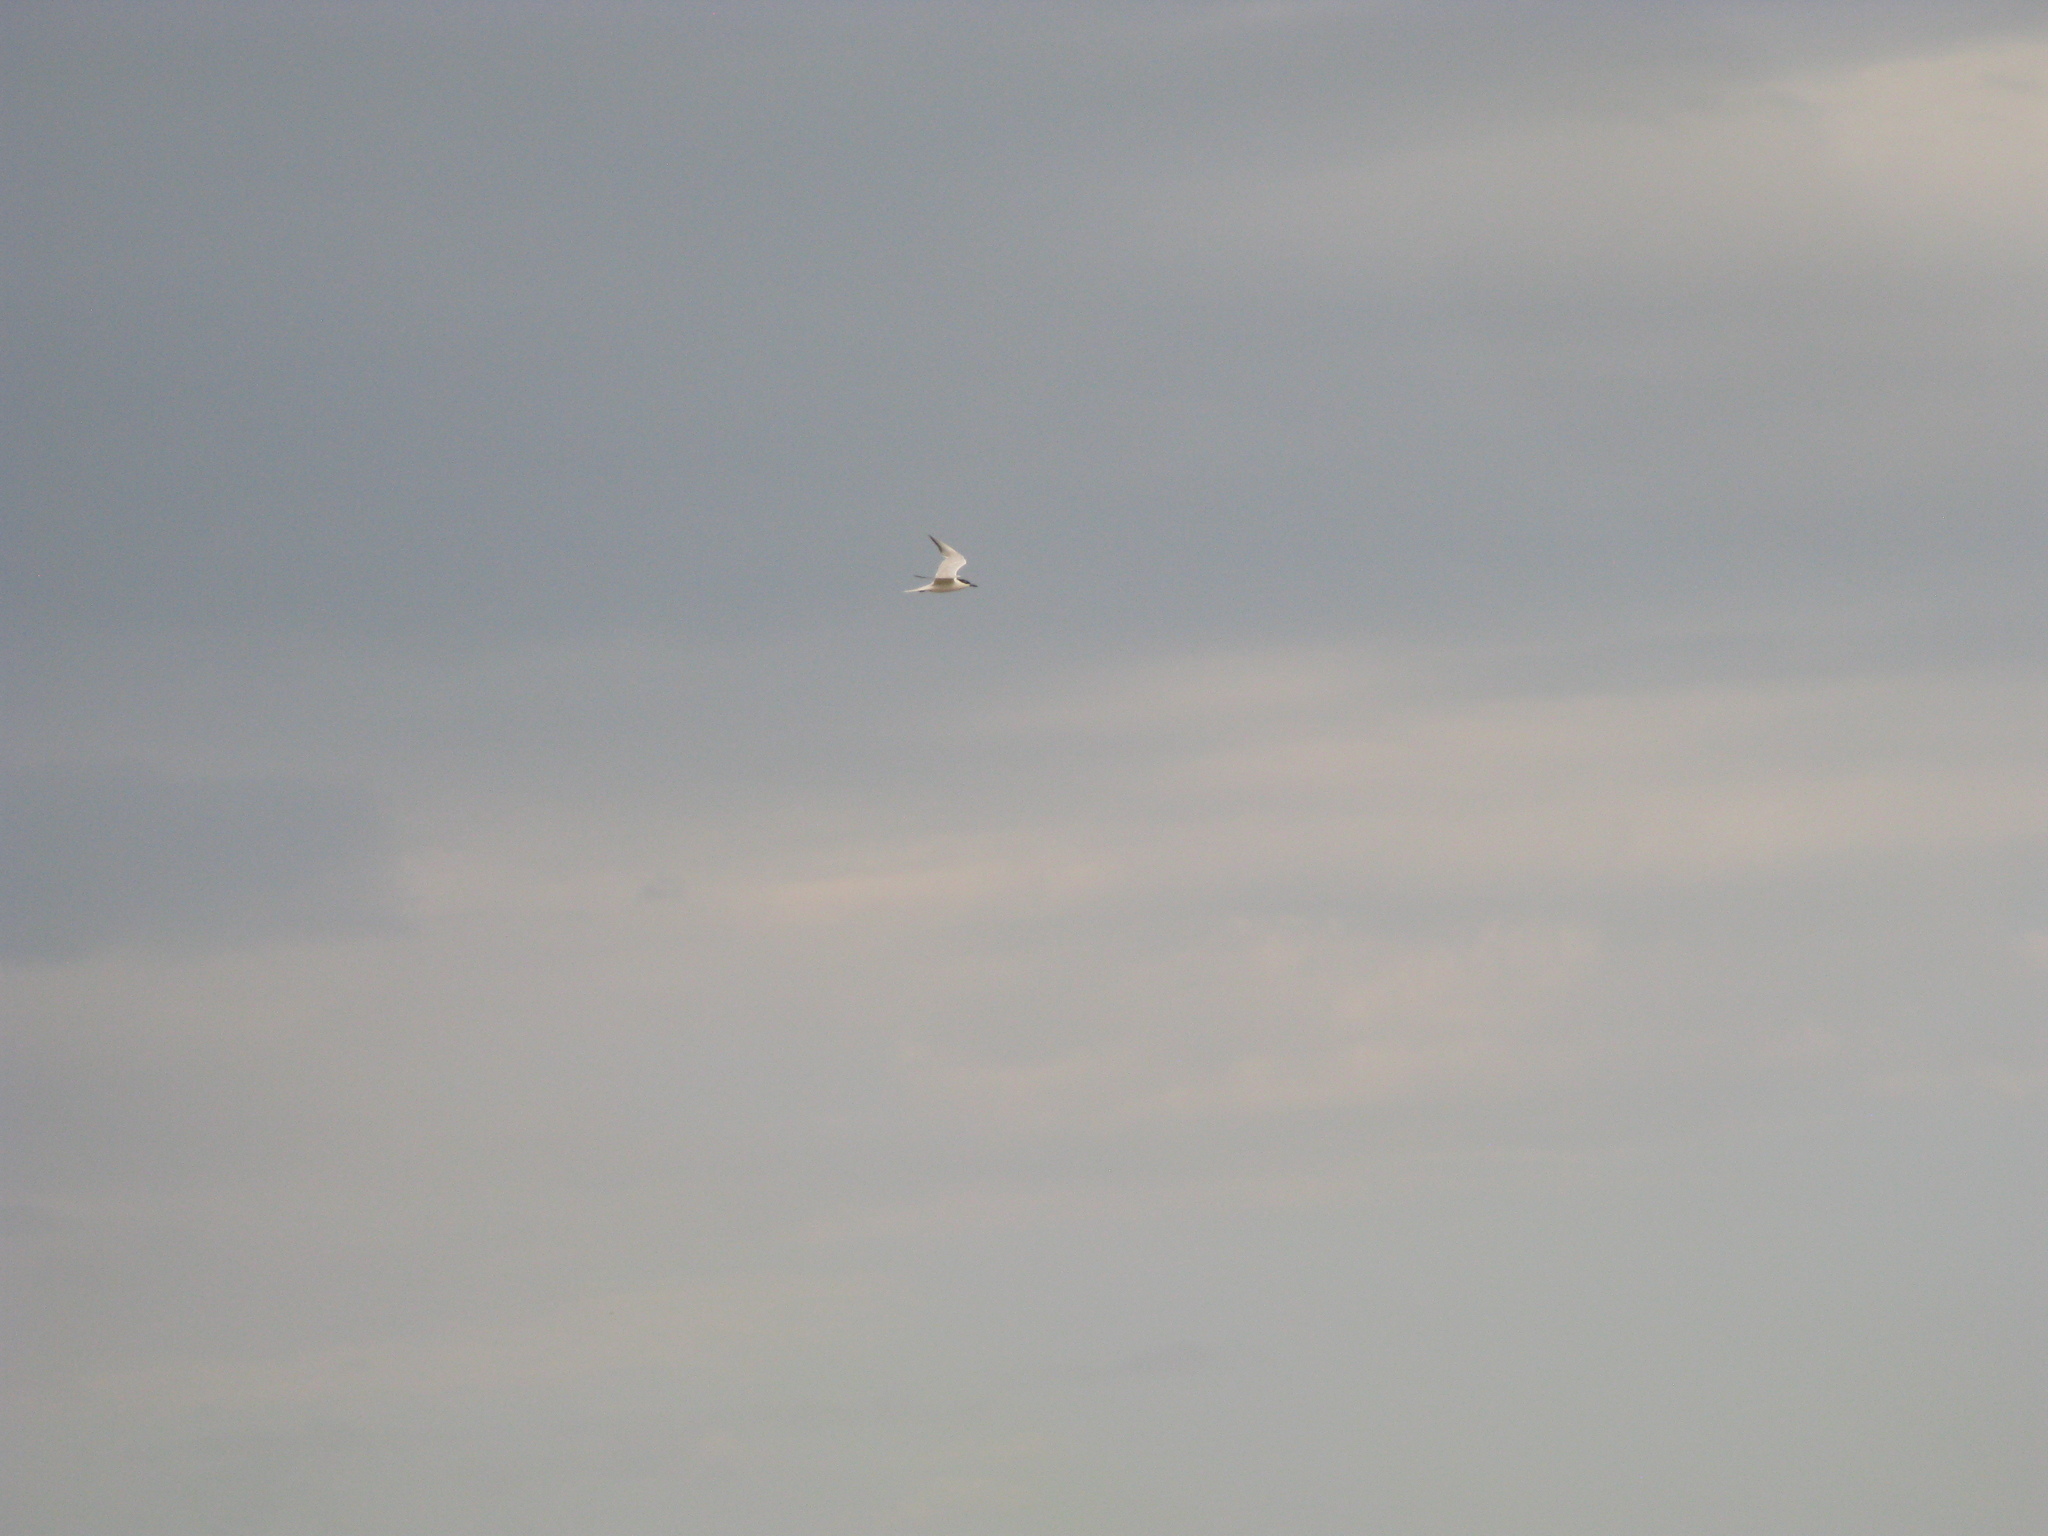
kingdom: Animalia
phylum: Chordata
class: Aves
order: Charadriiformes
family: Laridae
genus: Gelochelidon
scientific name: Gelochelidon nilotica
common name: Gull-billed tern
